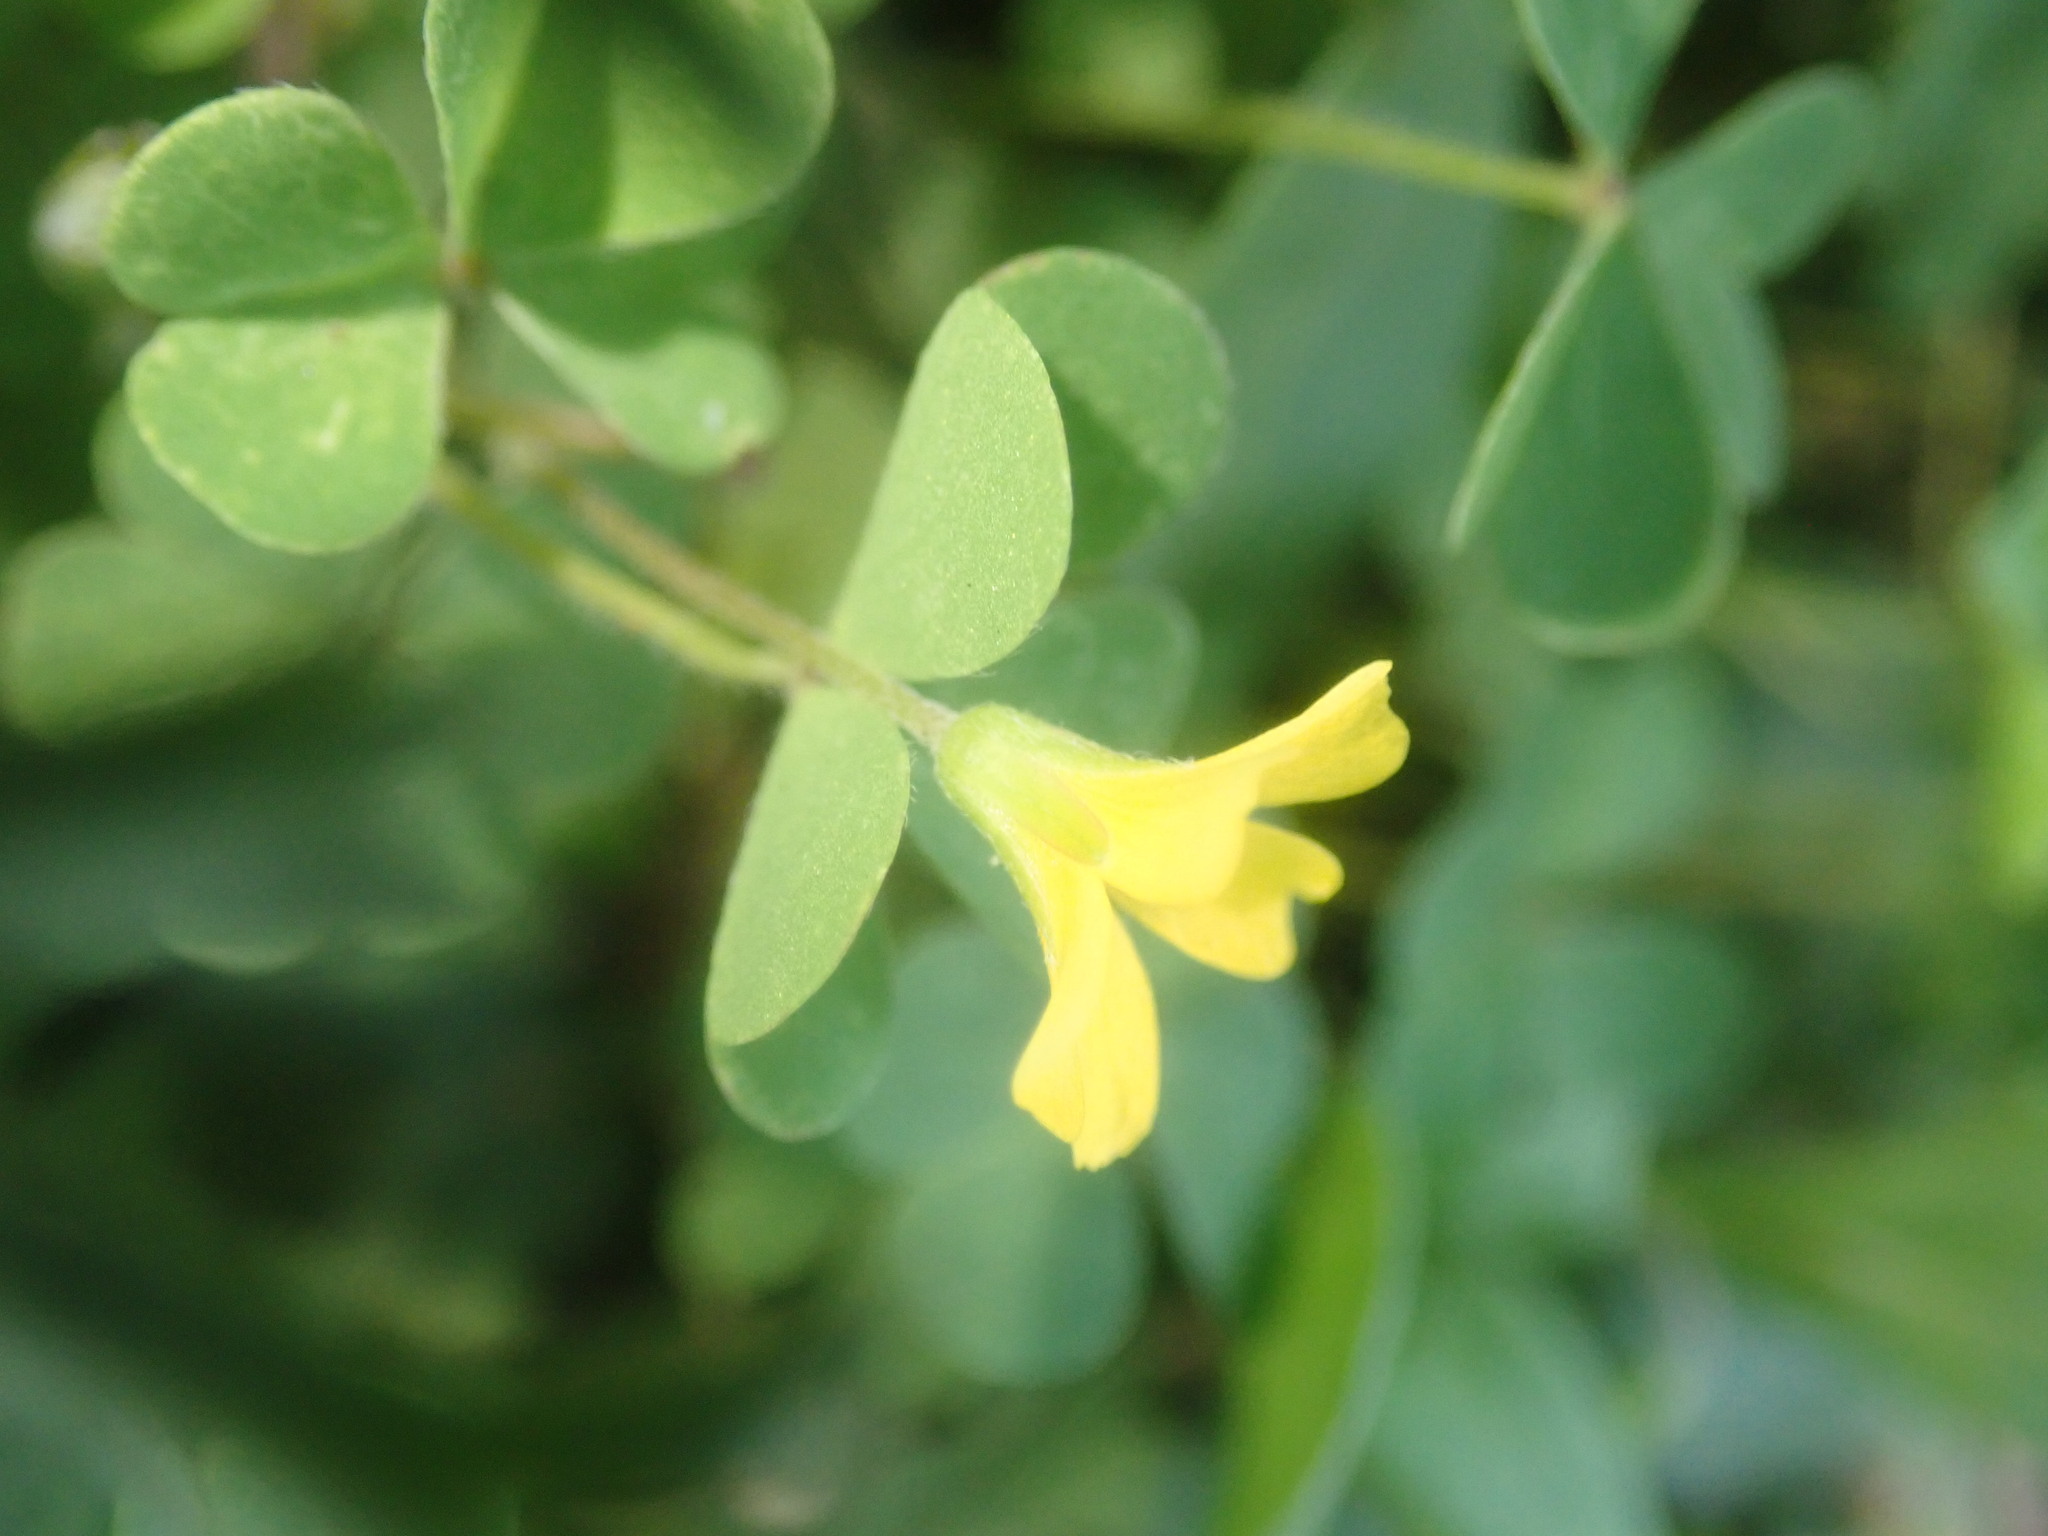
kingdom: Plantae
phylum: Tracheophyta
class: Magnoliopsida
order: Oxalidales
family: Oxalidaceae
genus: Oxalis
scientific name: Oxalis corniculata
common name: Procumbent yellow-sorrel
